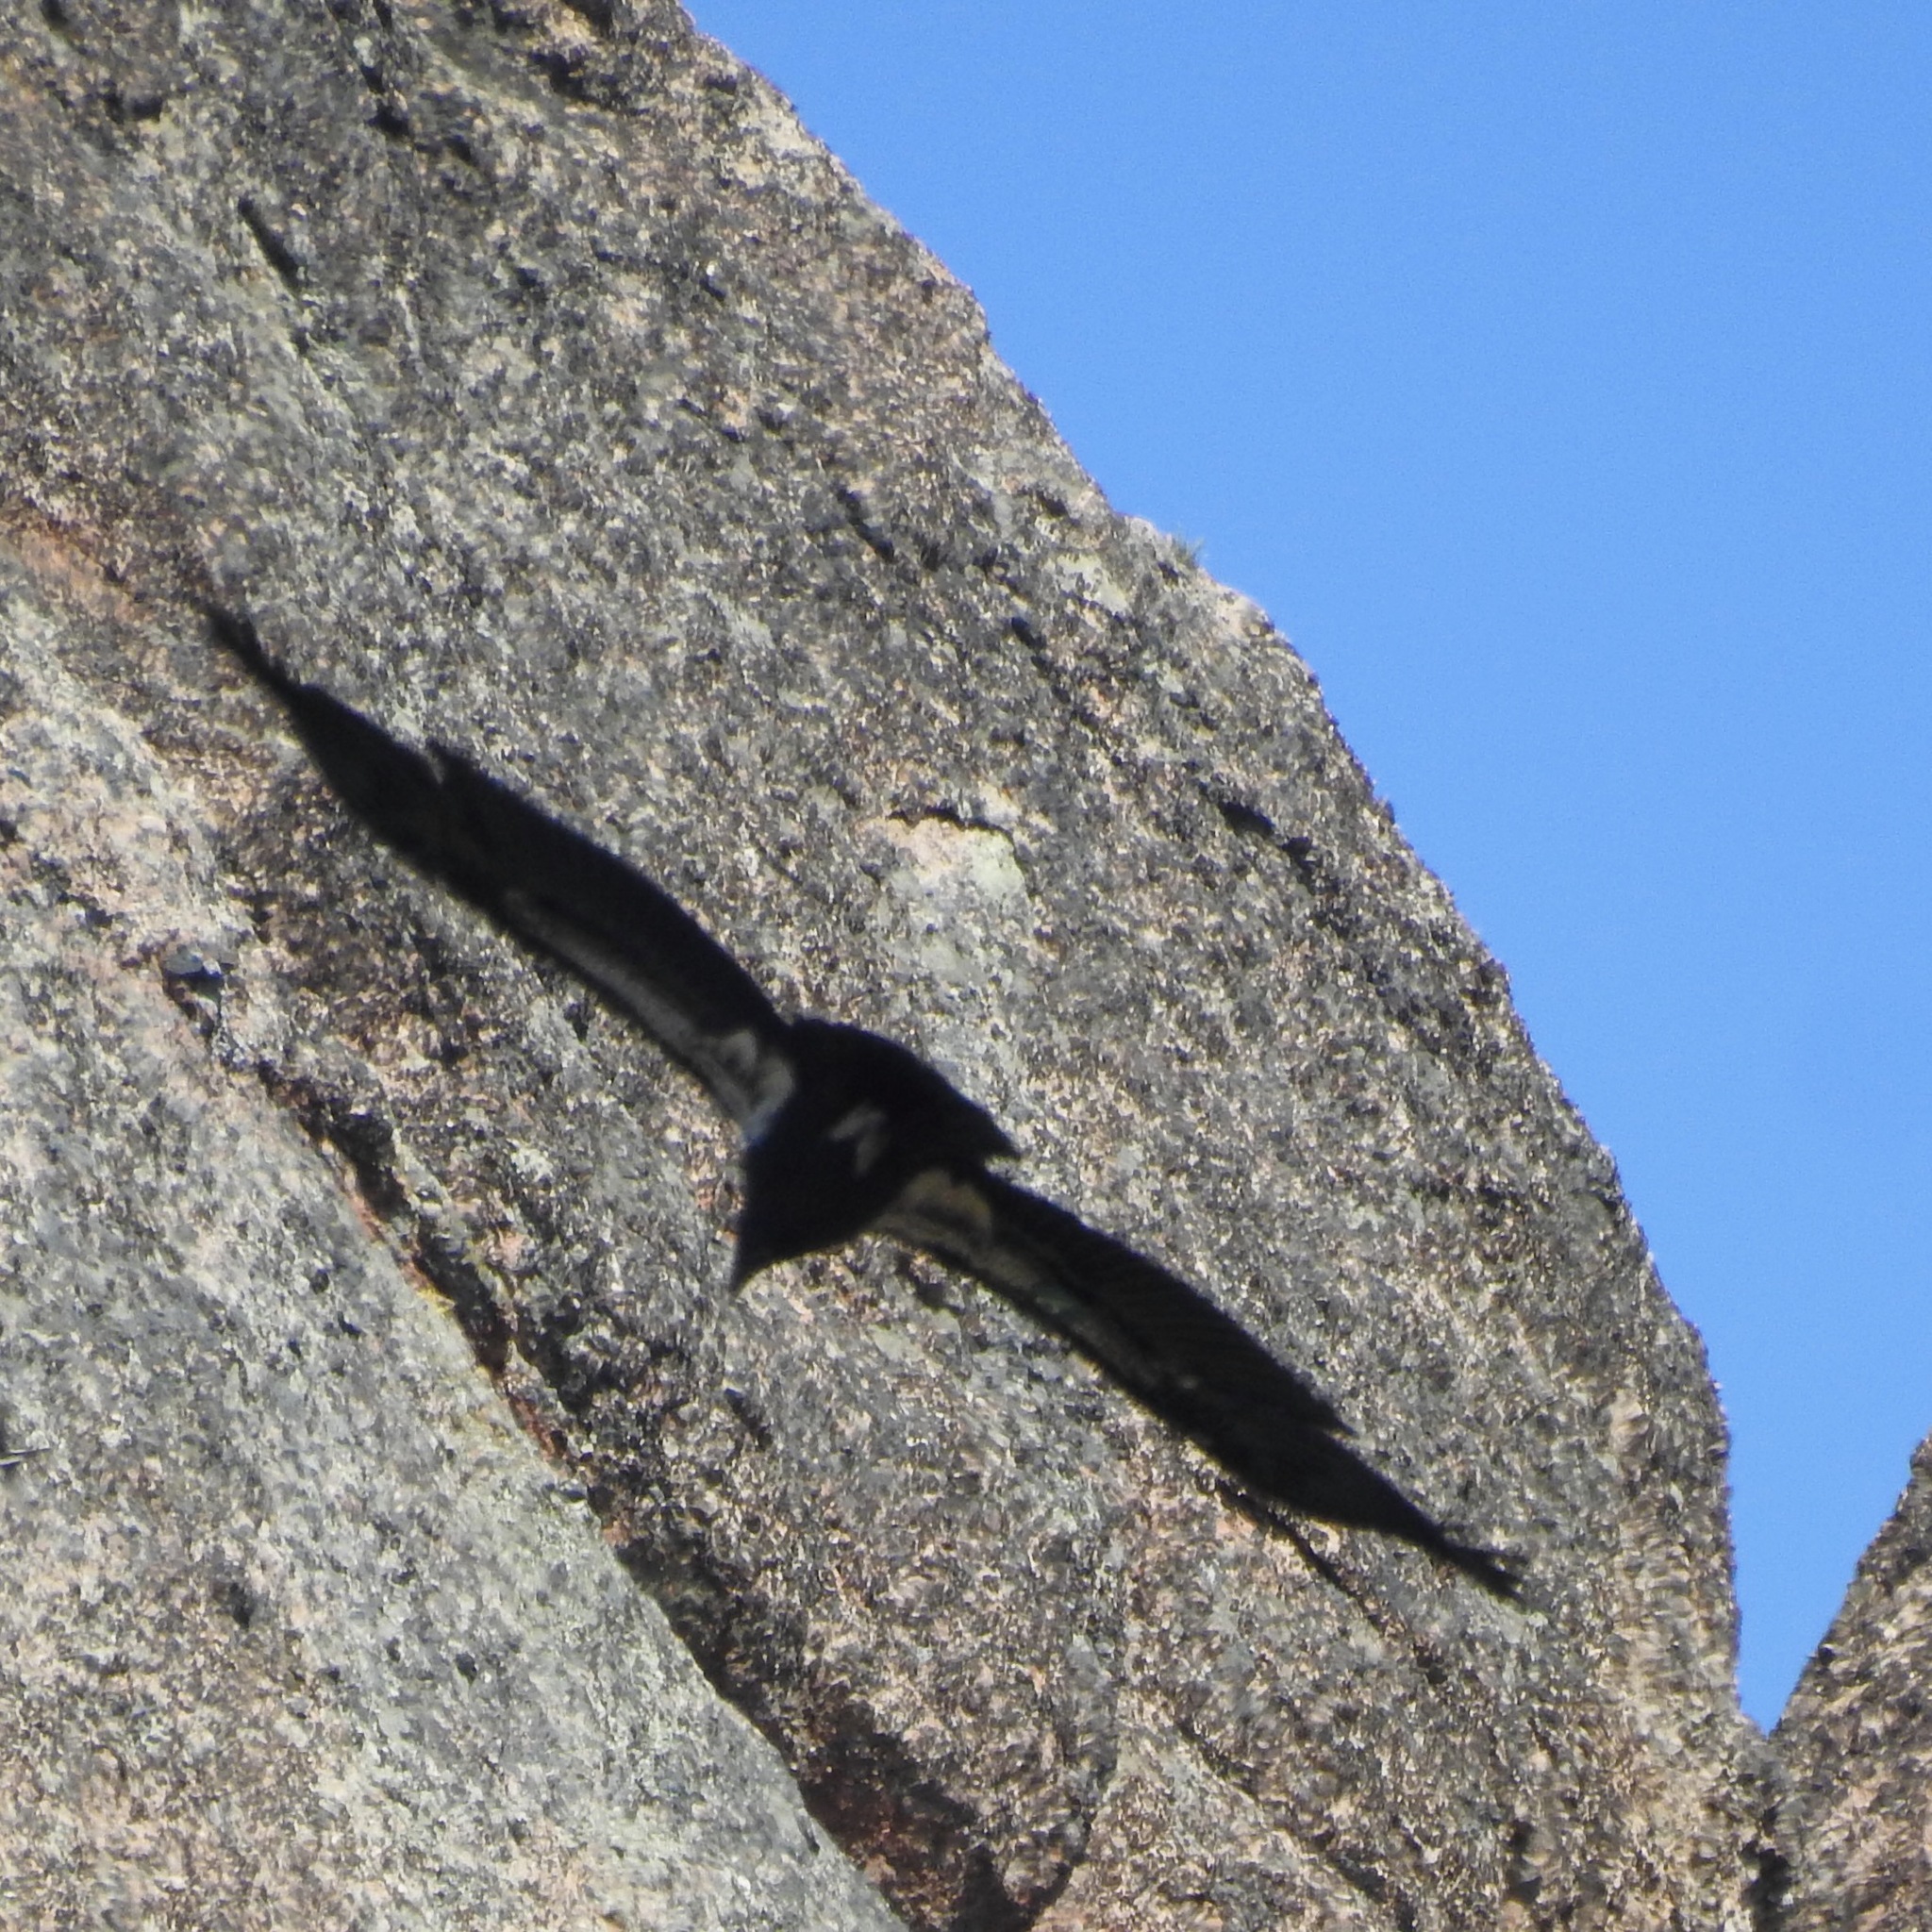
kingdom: Animalia
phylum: Chordata
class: Aves
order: Accipitriformes
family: Cathartidae
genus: Gymnogyps
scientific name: Gymnogyps californianus
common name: California condor
